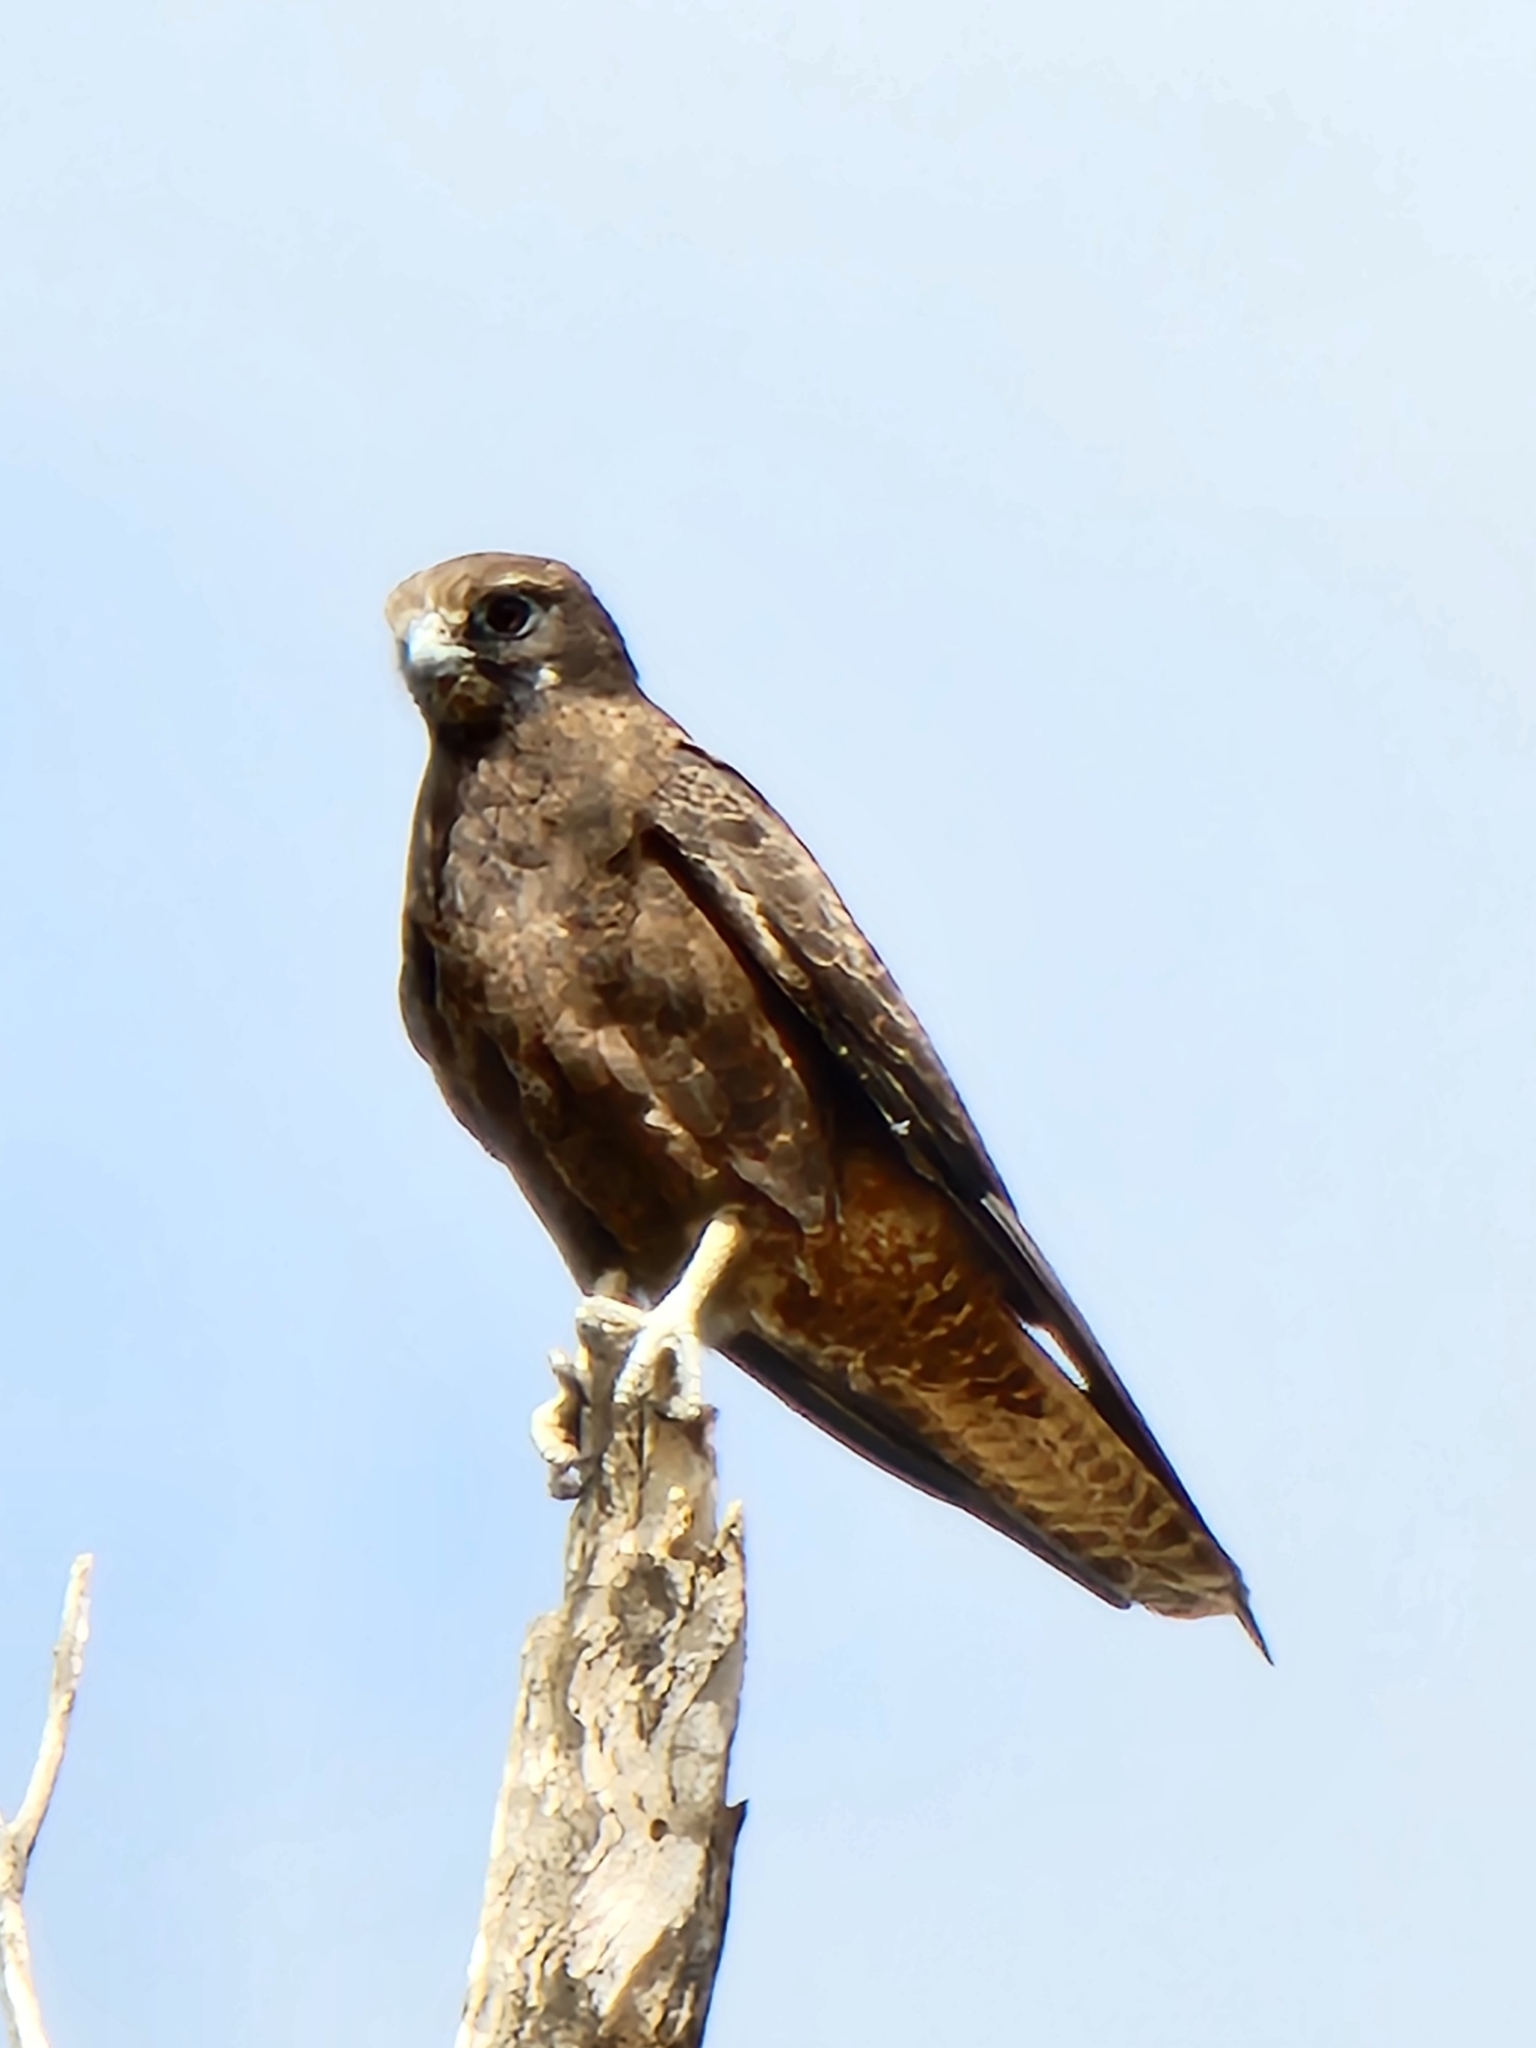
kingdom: Animalia
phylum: Chordata
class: Aves
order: Falconiformes
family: Falconidae
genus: Falco
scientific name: Falco berigora
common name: Brown falcon
